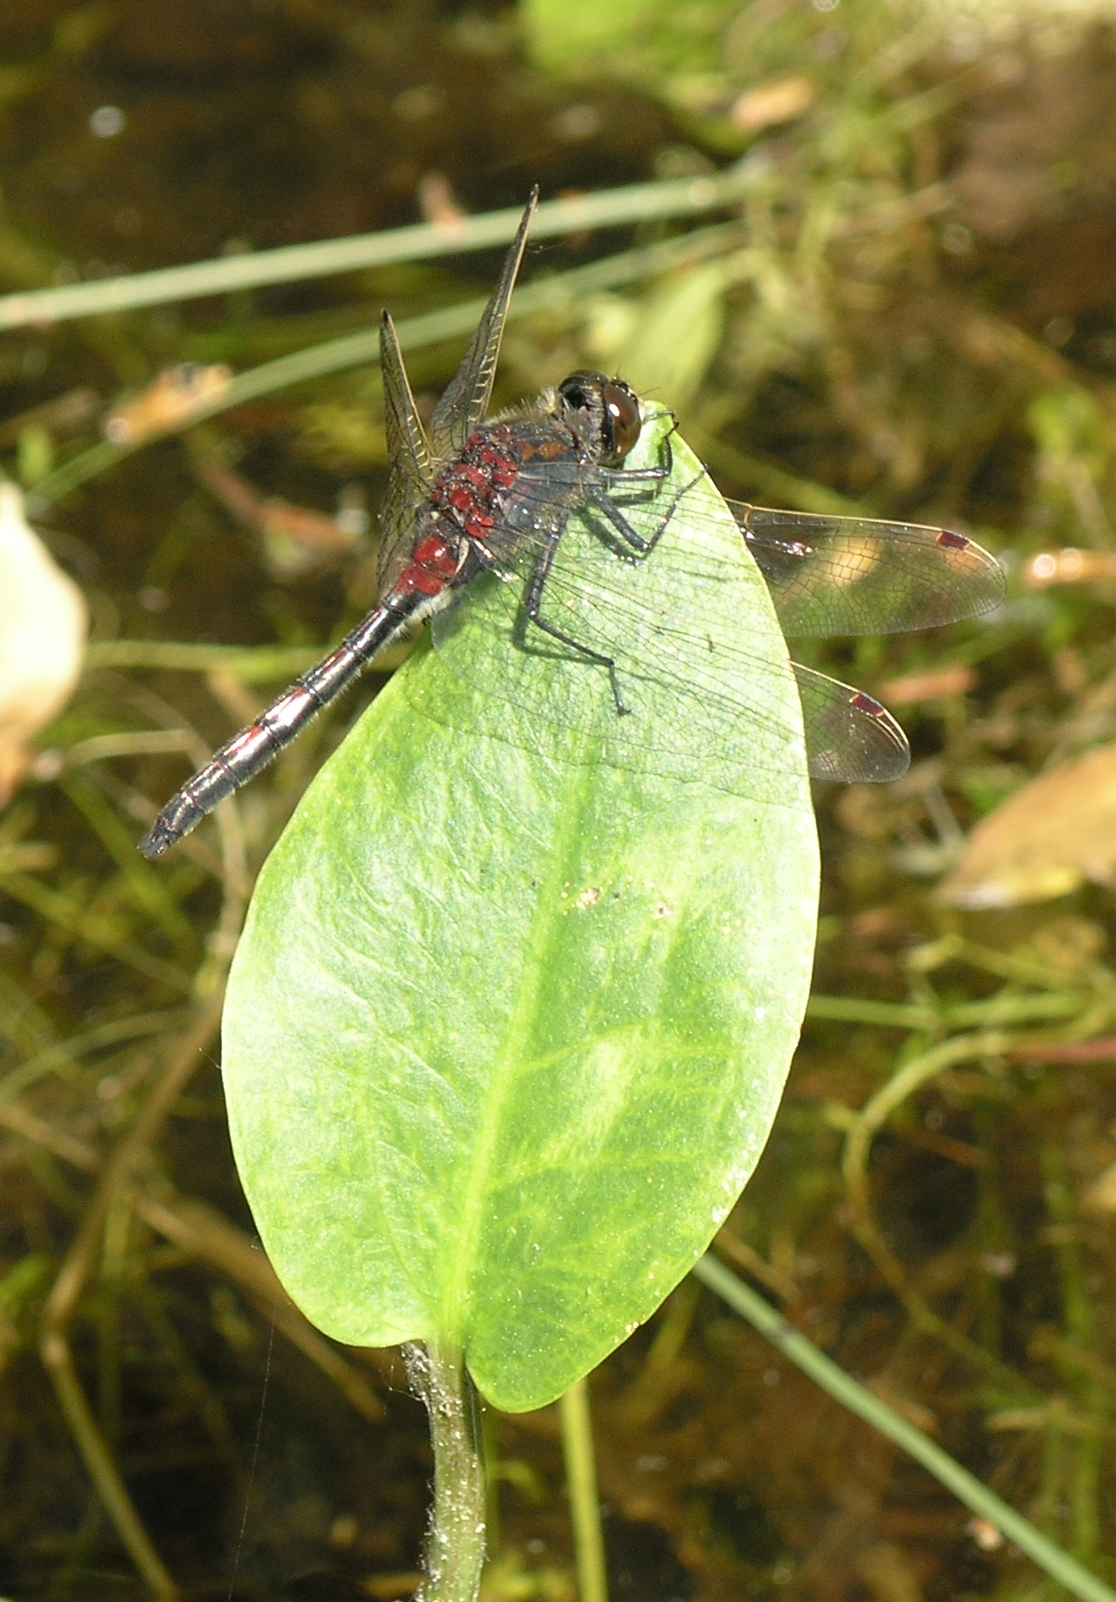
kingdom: Animalia
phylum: Arthropoda
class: Insecta
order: Odonata
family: Libellulidae
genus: Leucorrhinia
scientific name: Leucorrhinia rubicunda
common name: Ruby whiteface
